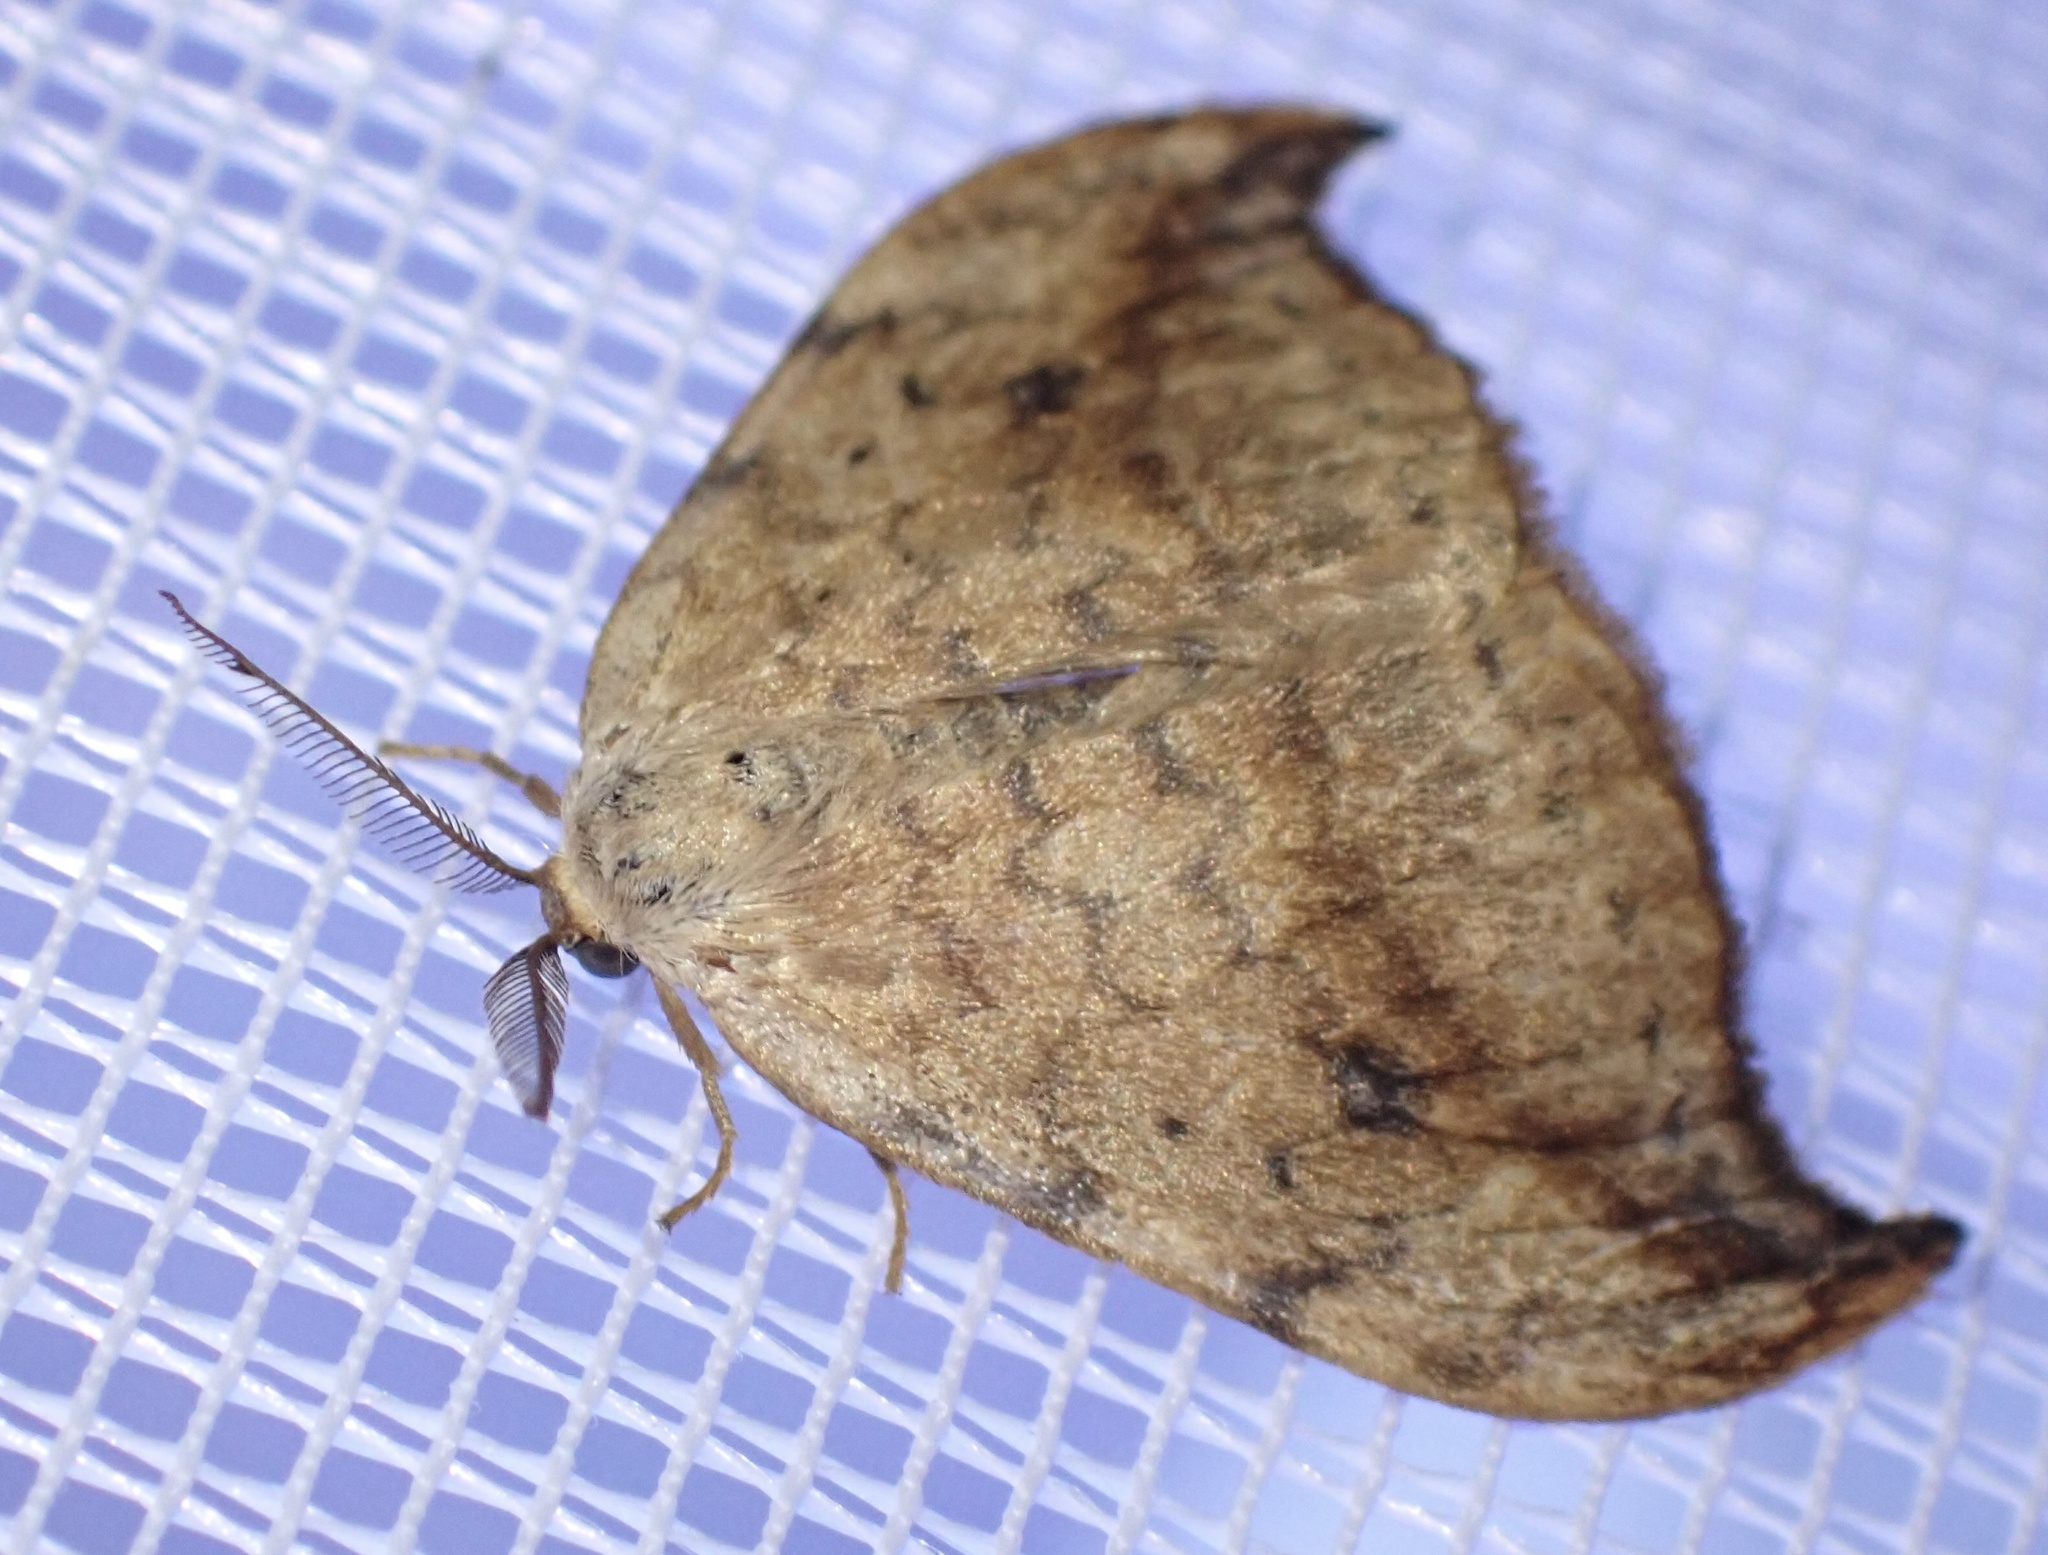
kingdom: Animalia
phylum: Arthropoda
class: Insecta
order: Lepidoptera
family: Drepanidae
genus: Drepana
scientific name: Drepana falcataria
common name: Pebble hook-tip
